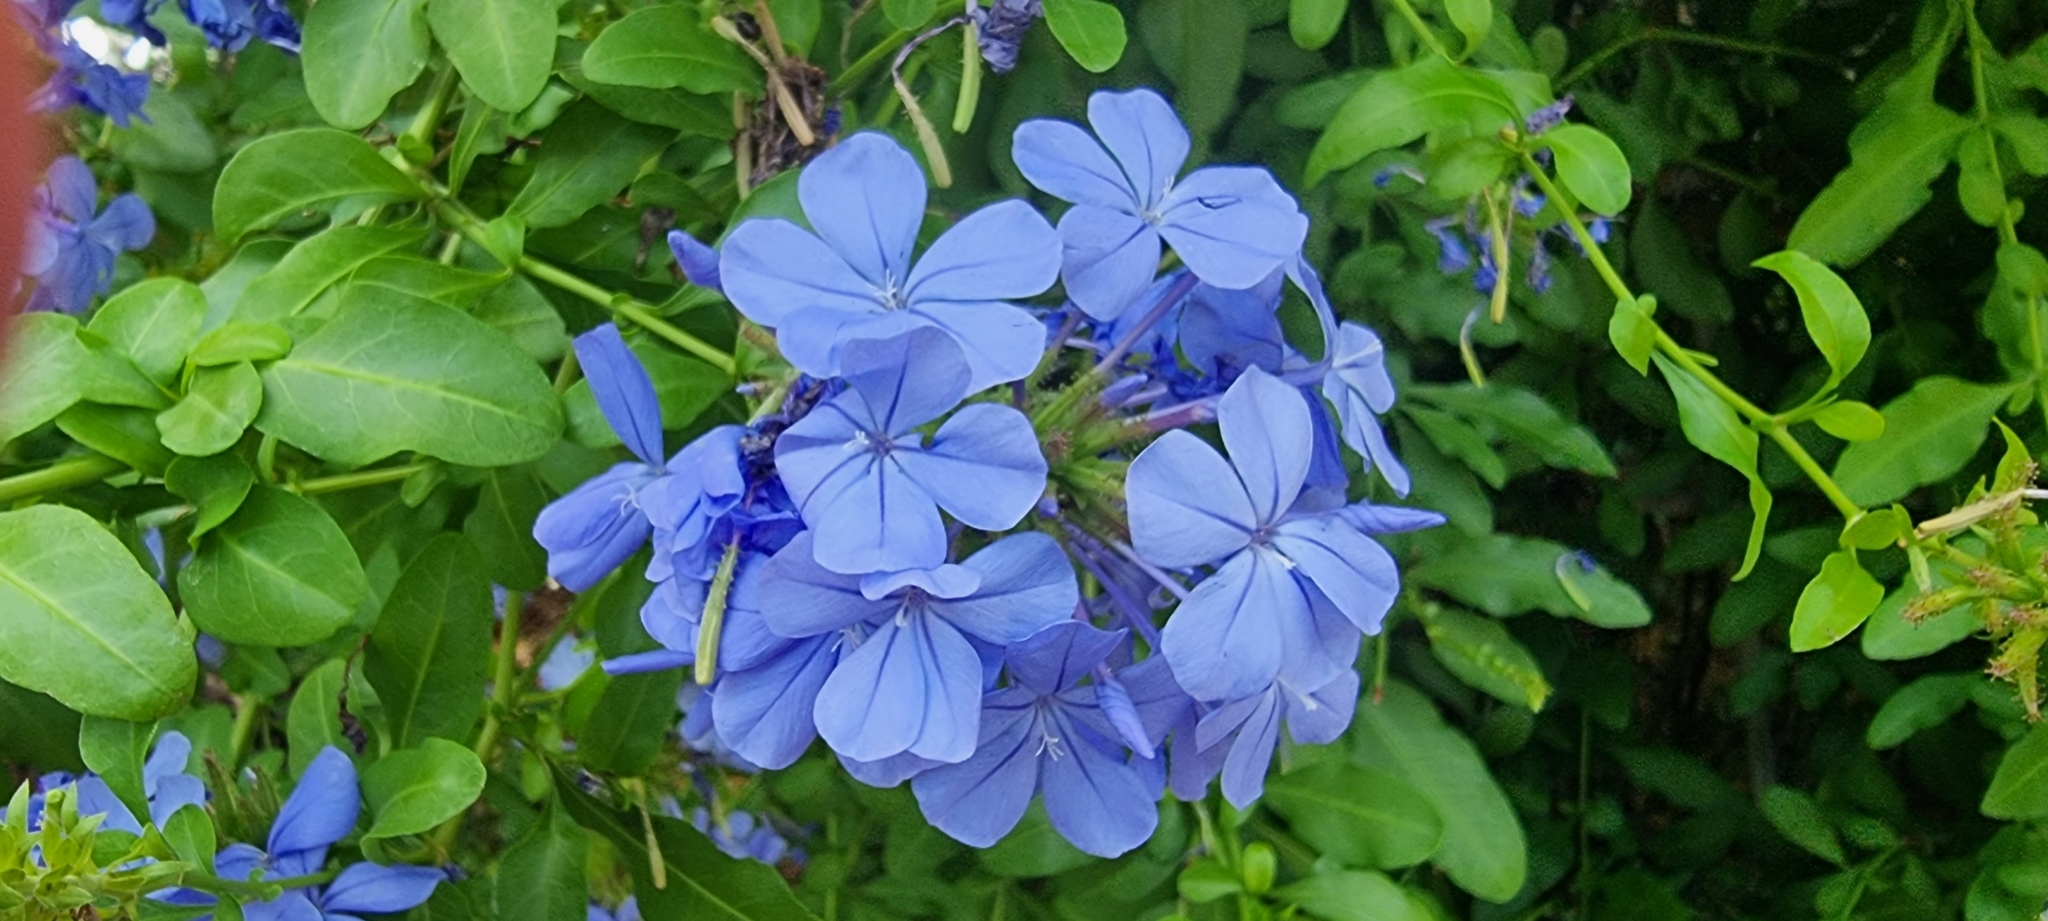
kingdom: Plantae
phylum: Tracheophyta
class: Magnoliopsida
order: Caryophyllales
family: Plumbaginaceae
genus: Plumbago
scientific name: Plumbago auriculata
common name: Cape leadwort
